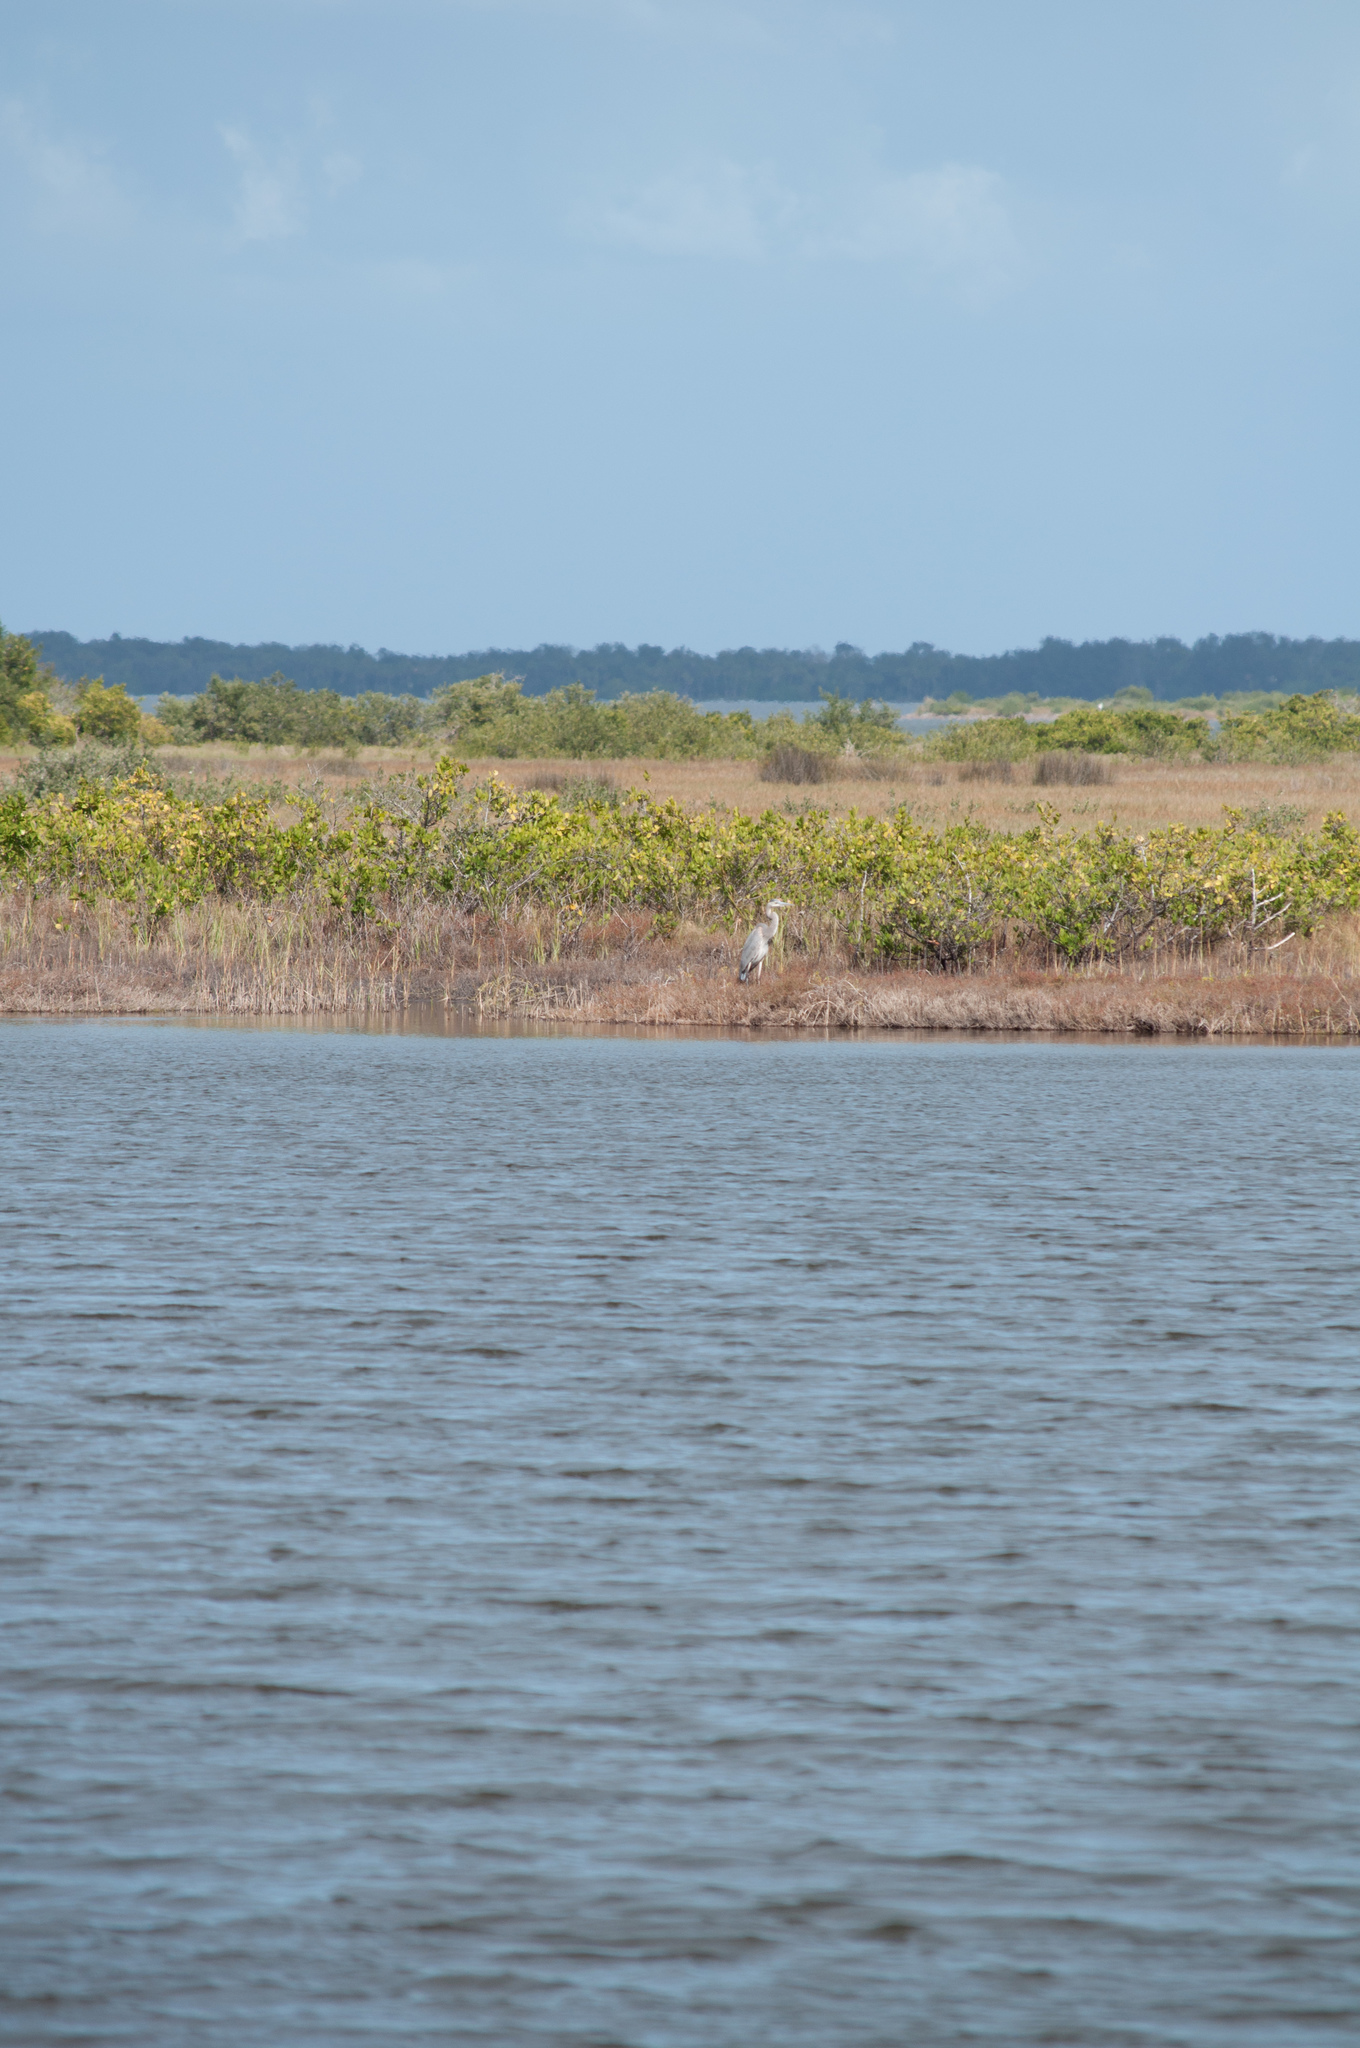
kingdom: Animalia
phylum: Chordata
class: Aves
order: Pelecaniformes
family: Ardeidae
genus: Ardea
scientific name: Ardea herodias
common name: Great blue heron
